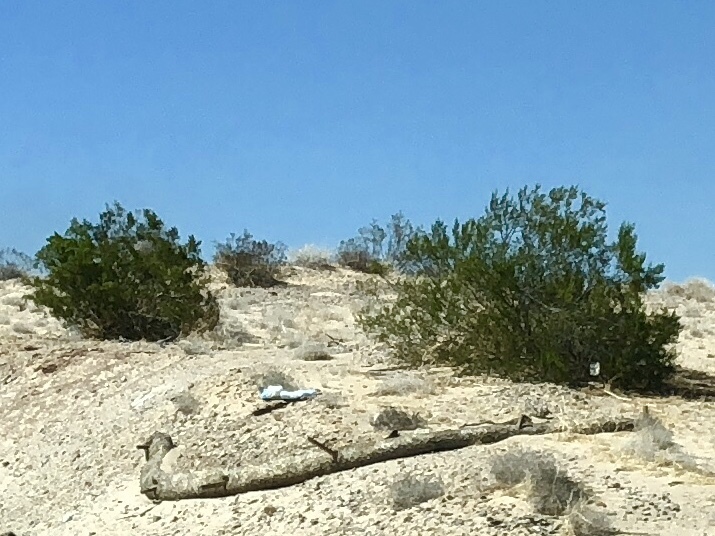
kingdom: Plantae
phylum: Tracheophyta
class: Magnoliopsida
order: Zygophyllales
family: Zygophyllaceae
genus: Larrea
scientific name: Larrea tridentata
